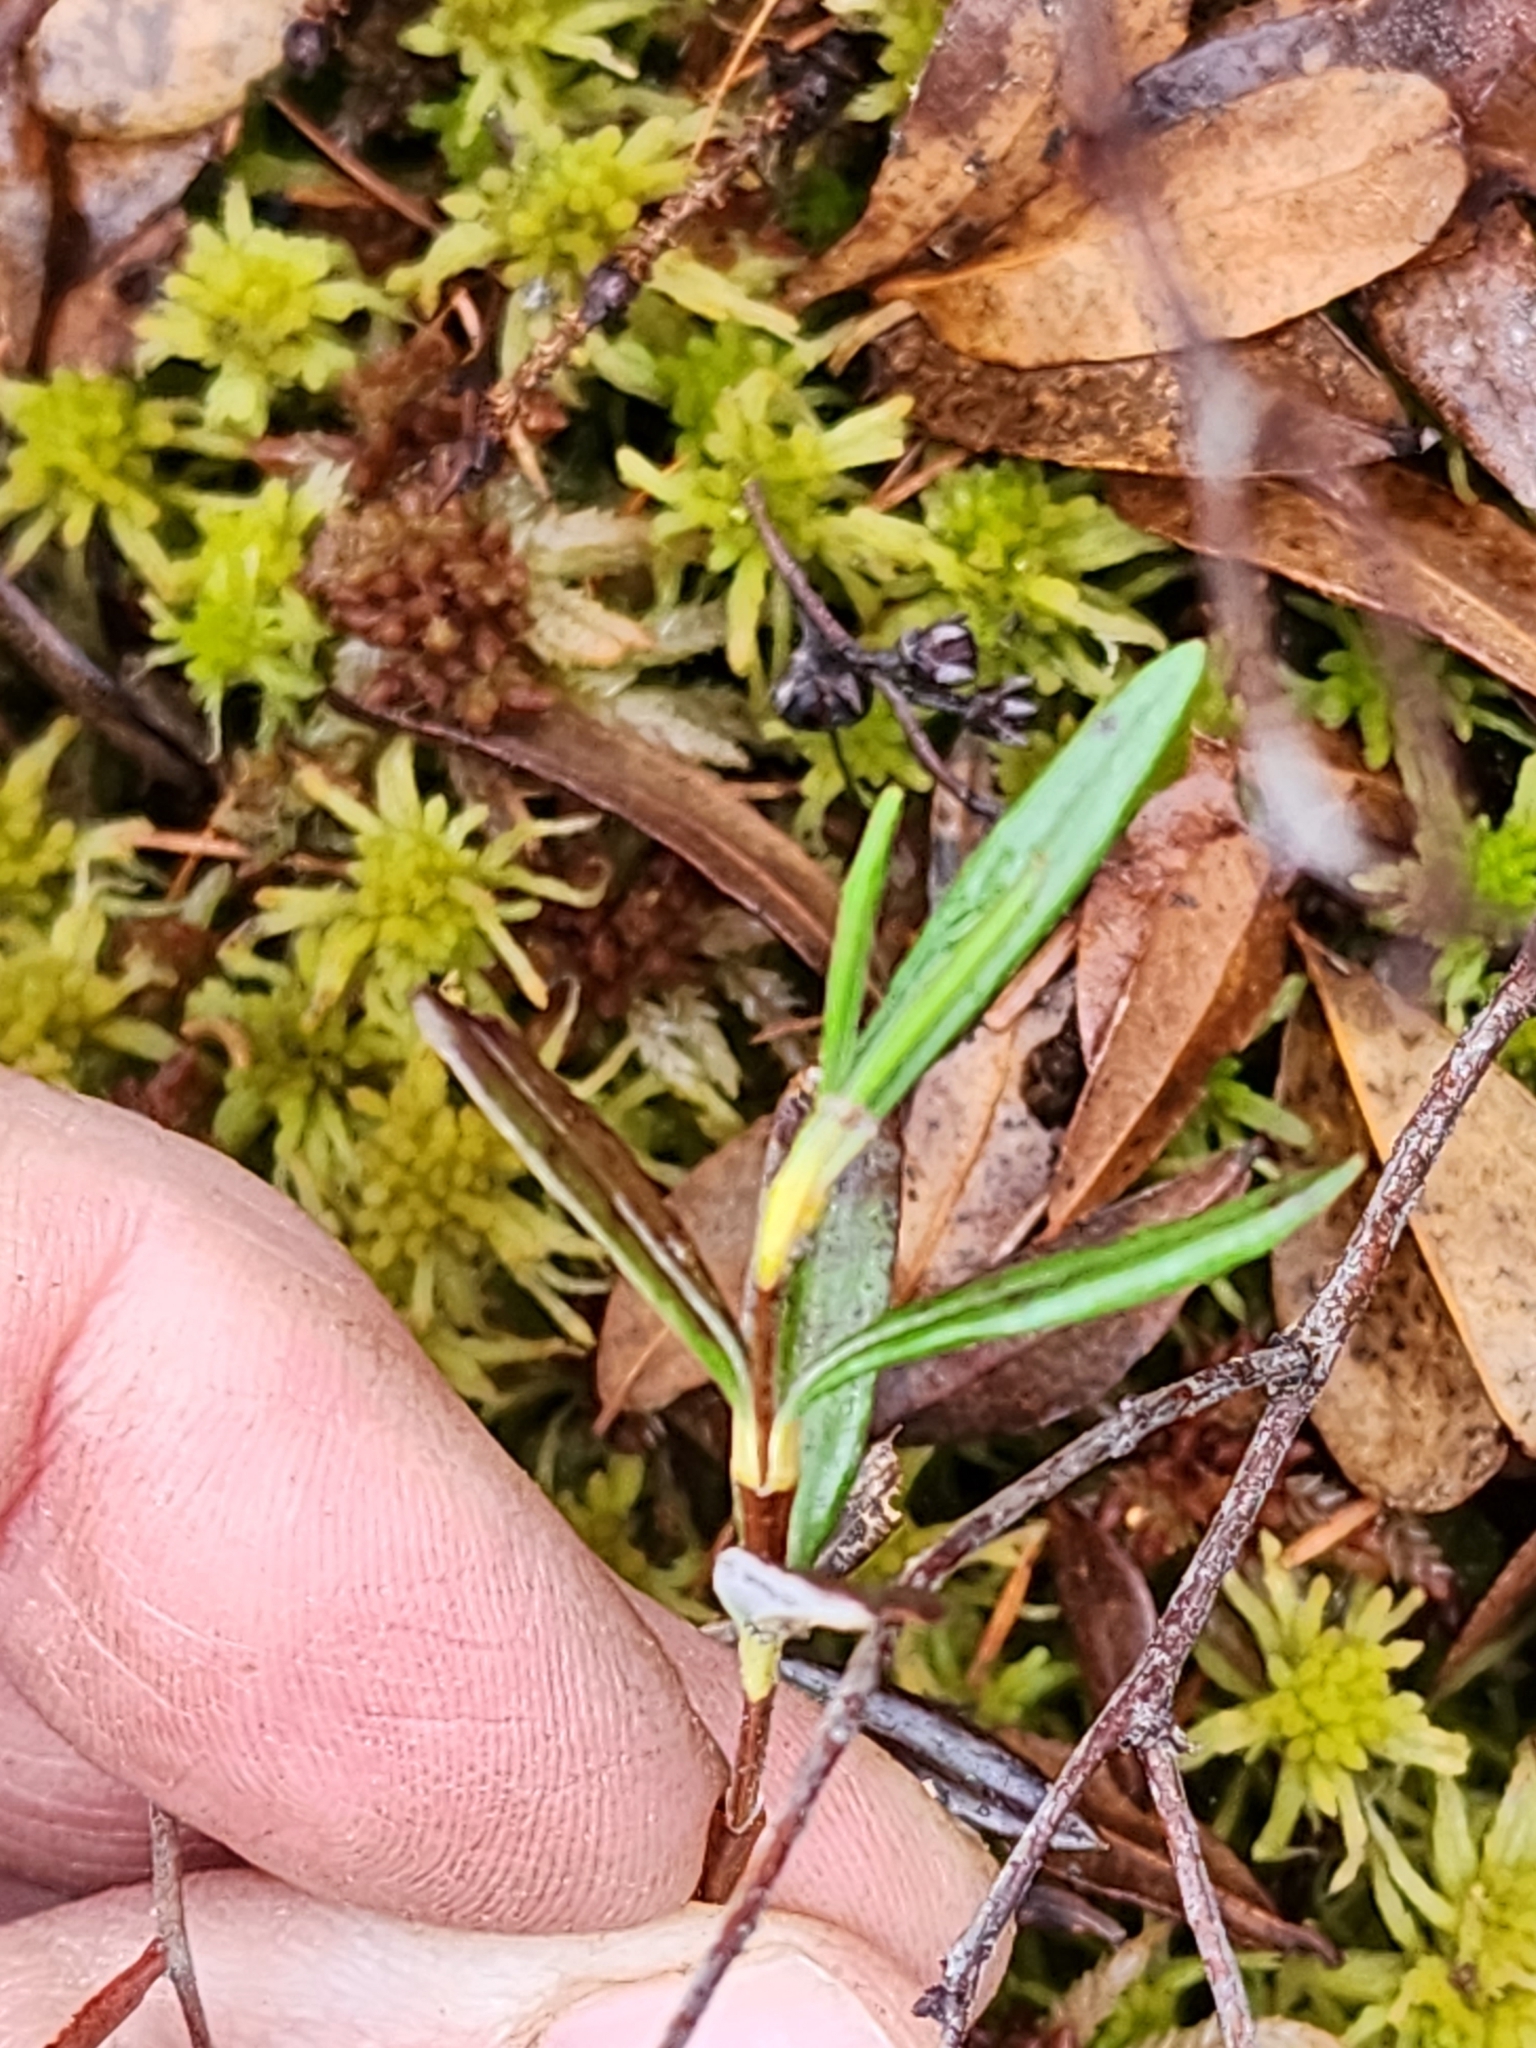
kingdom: Plantae
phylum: Tracheophyta
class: Magnoliopsida
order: Ericales
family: Ericaceae
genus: Kalmia
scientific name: Kalmia polifolia
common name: Bog-laurel
